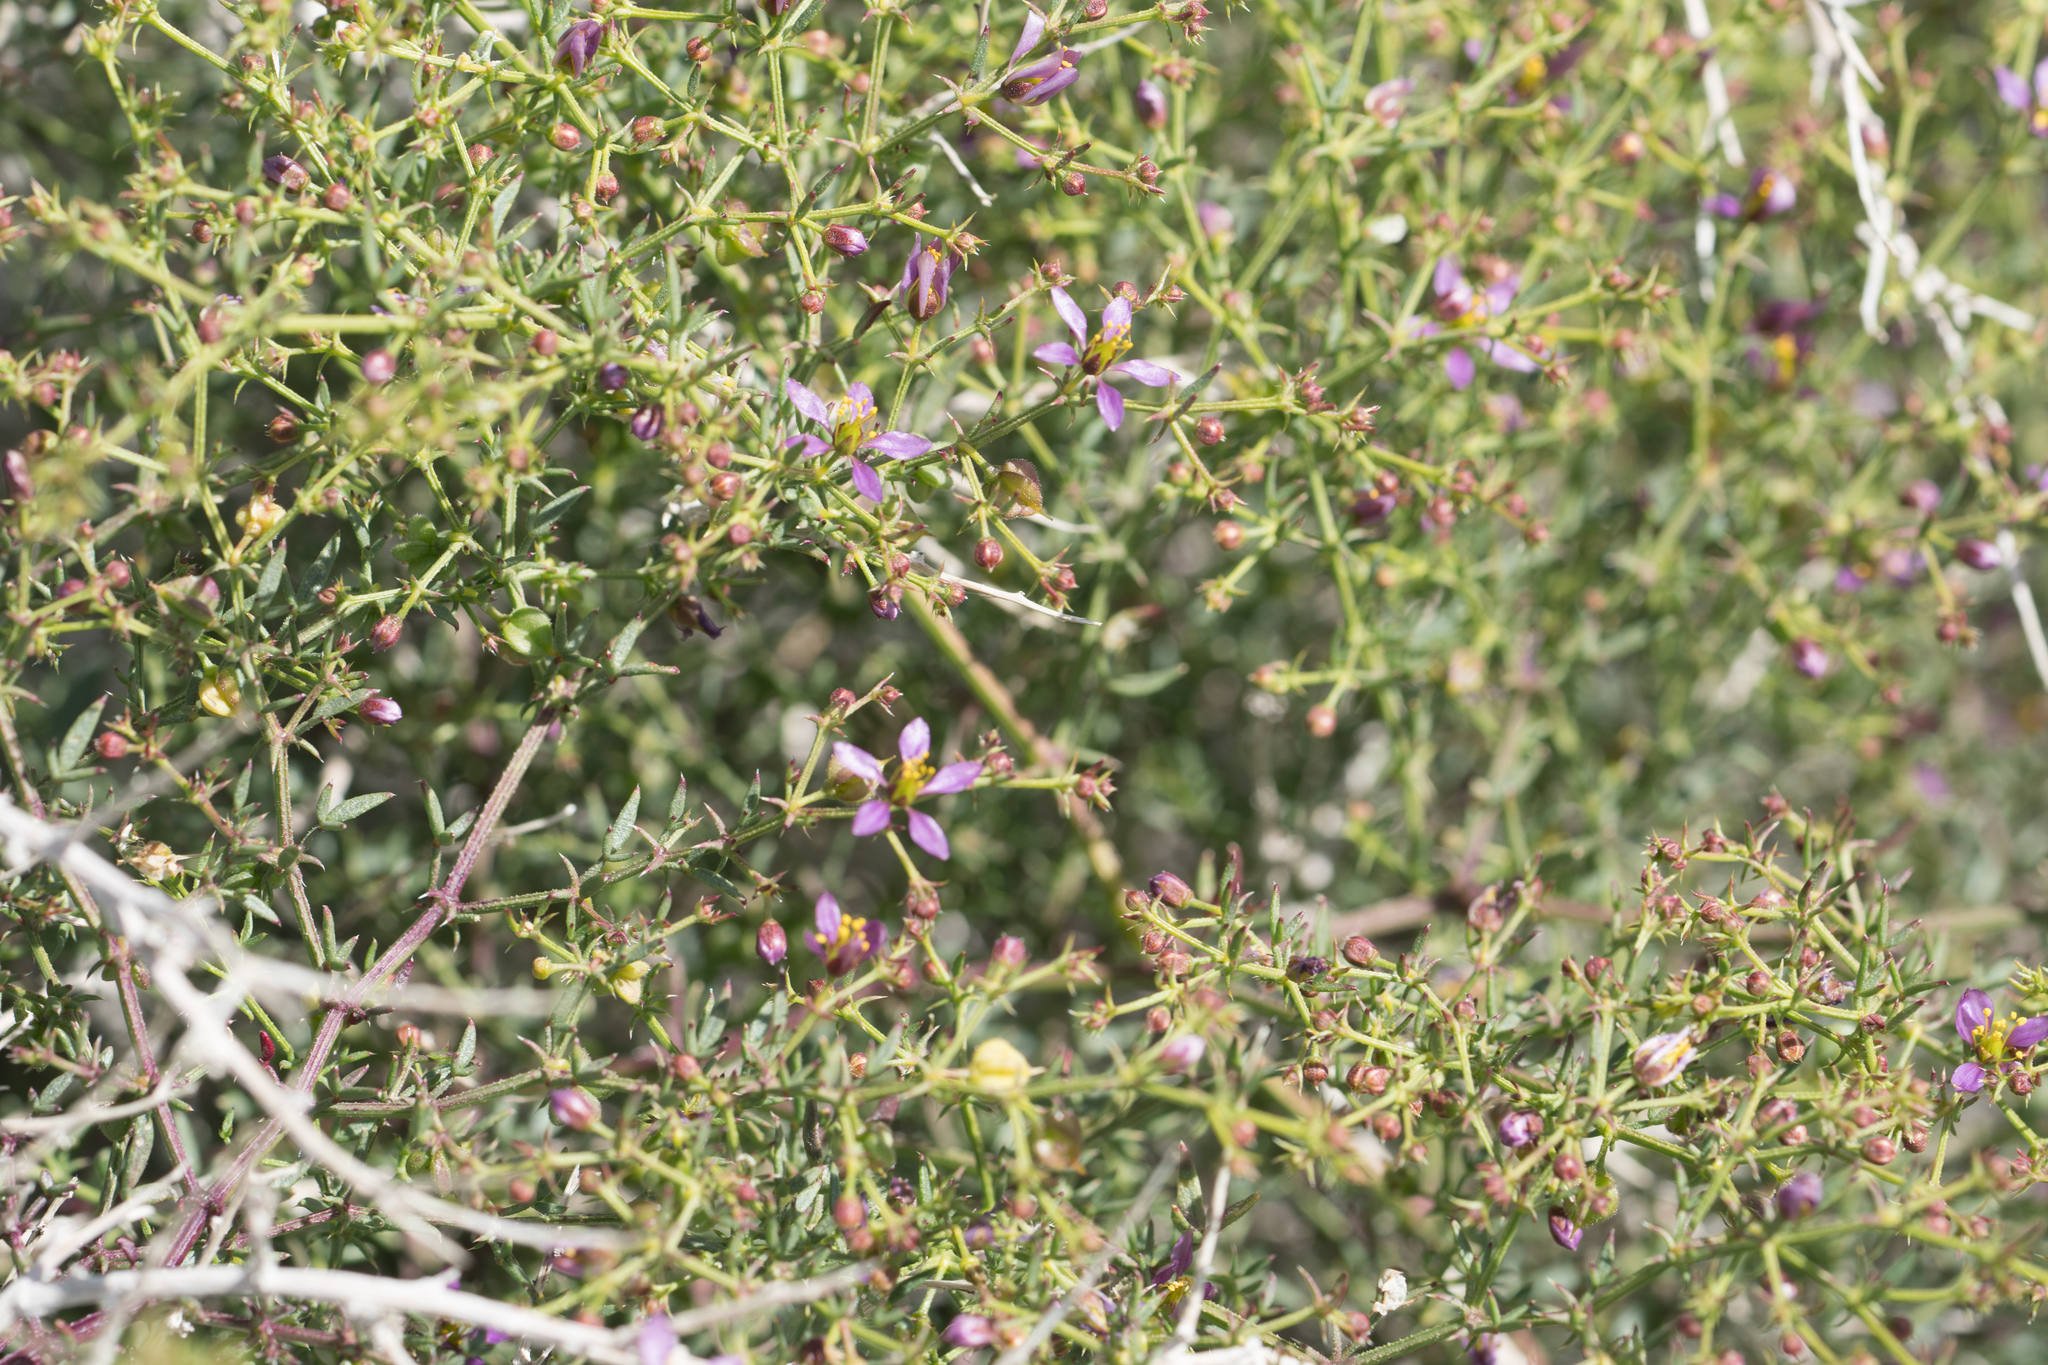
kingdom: Plantae
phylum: Tracheophyta
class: Magnoliopsida
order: Zygophyllales
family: Zygophyllaceae
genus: Fagonia
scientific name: Fagonia laevis
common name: California fagonbush
